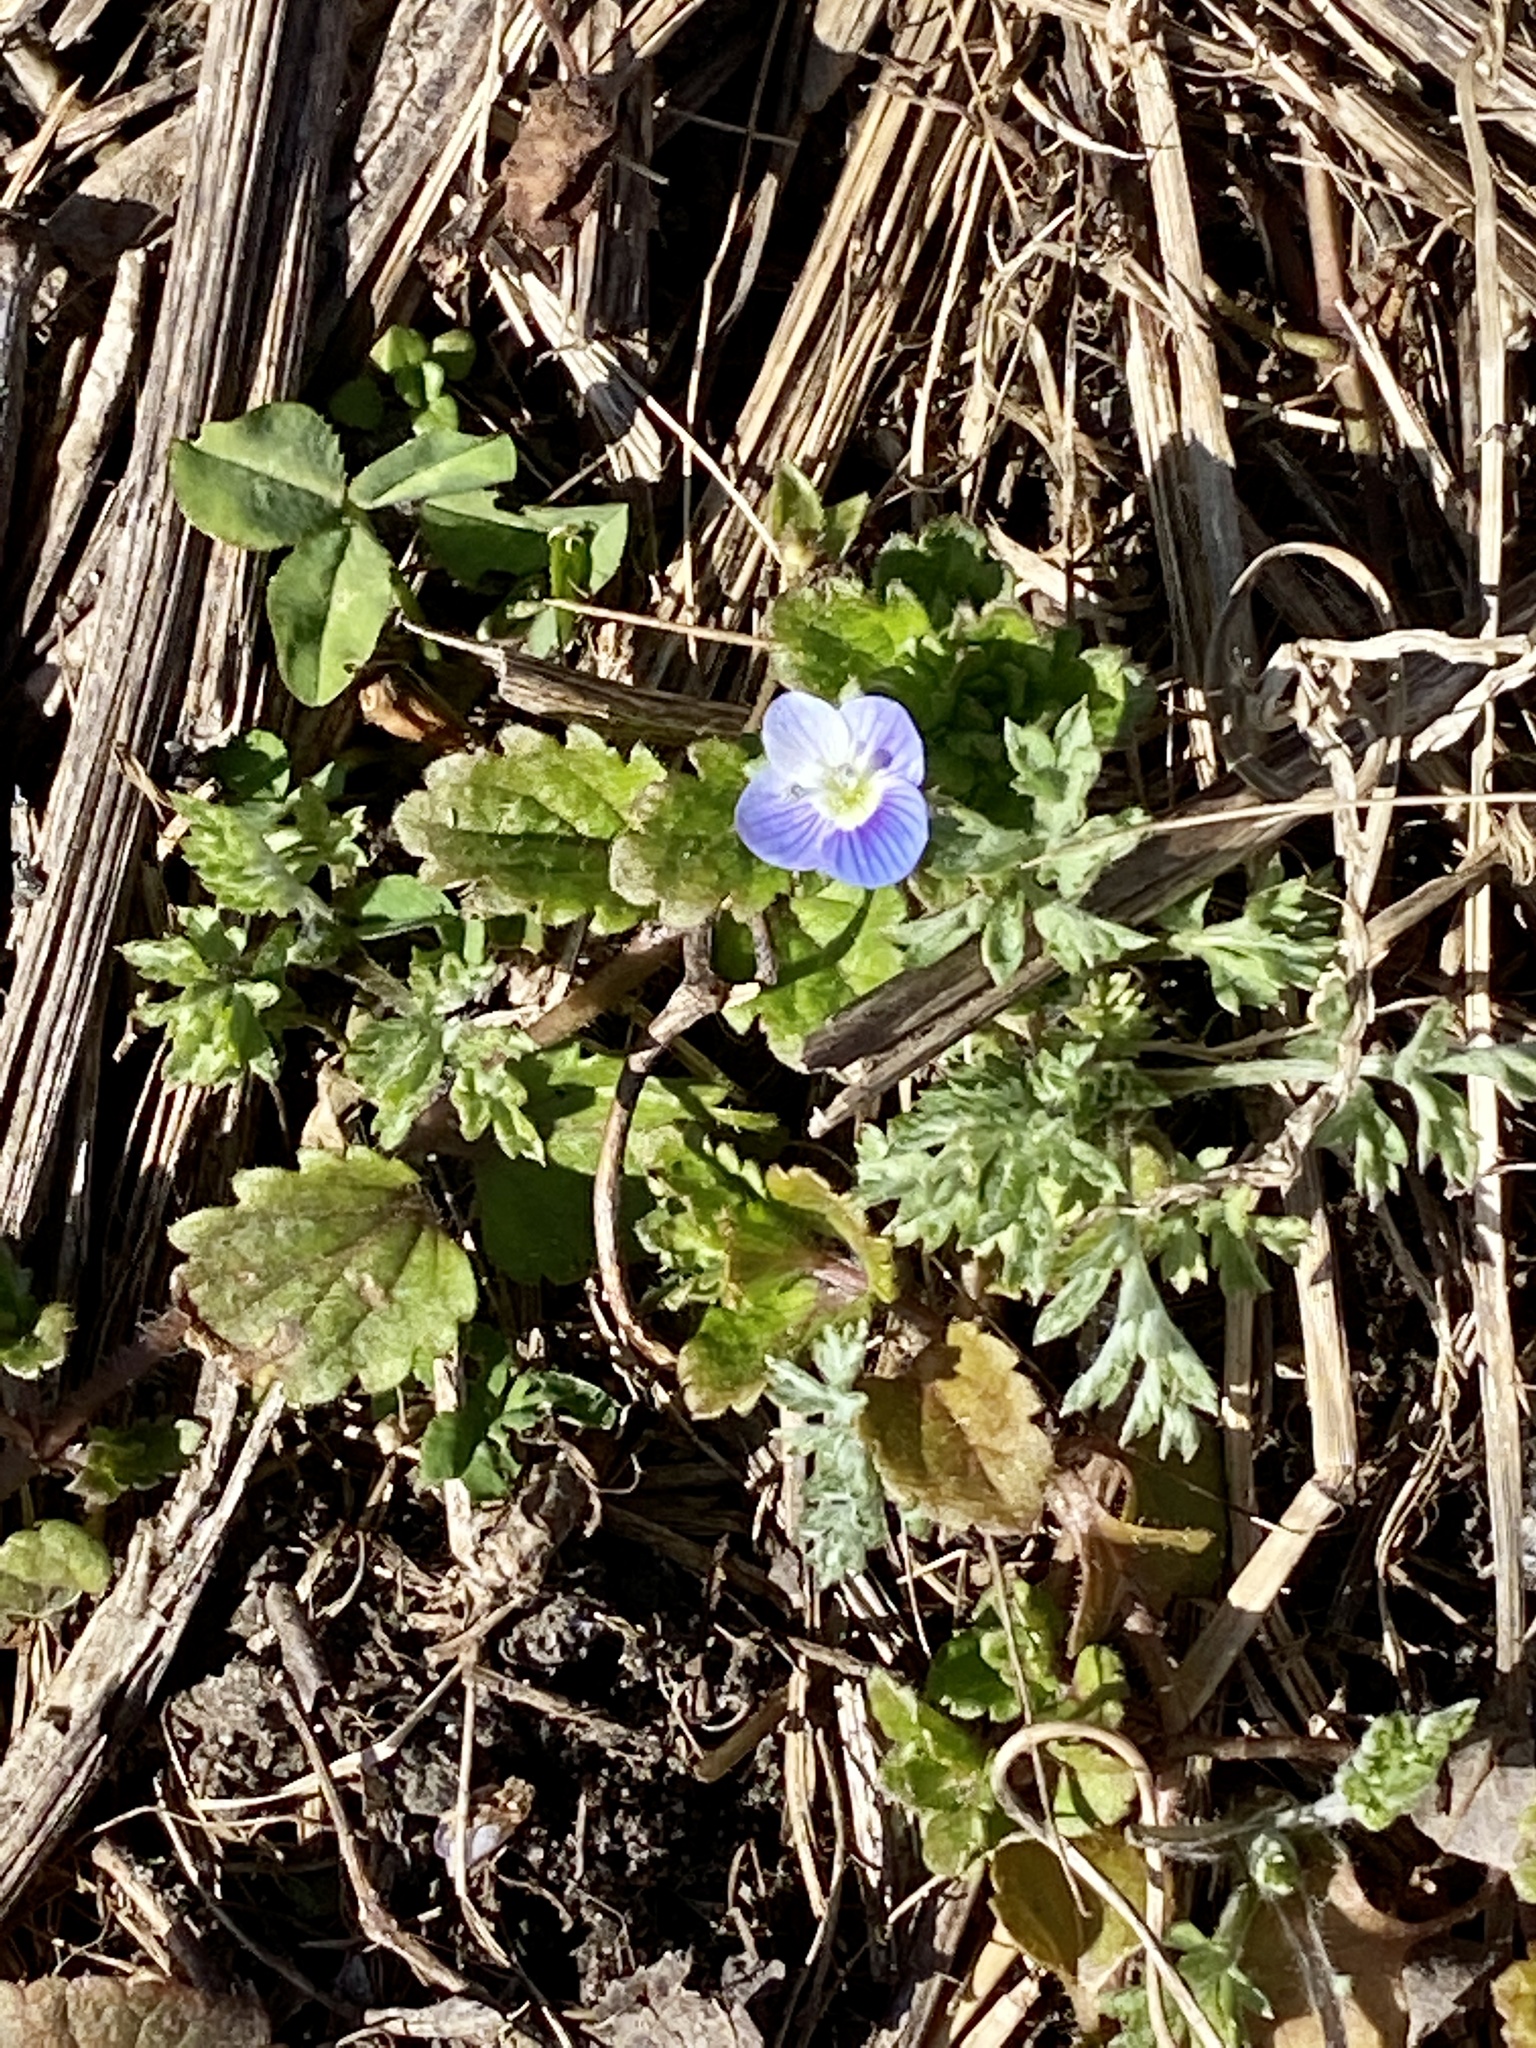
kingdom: Plantae
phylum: Tracheophyta
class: Magnoliopsida
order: Lamiales
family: Plantaginaceae
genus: Veronica
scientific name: Veronica persica
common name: Common field-speedwell
